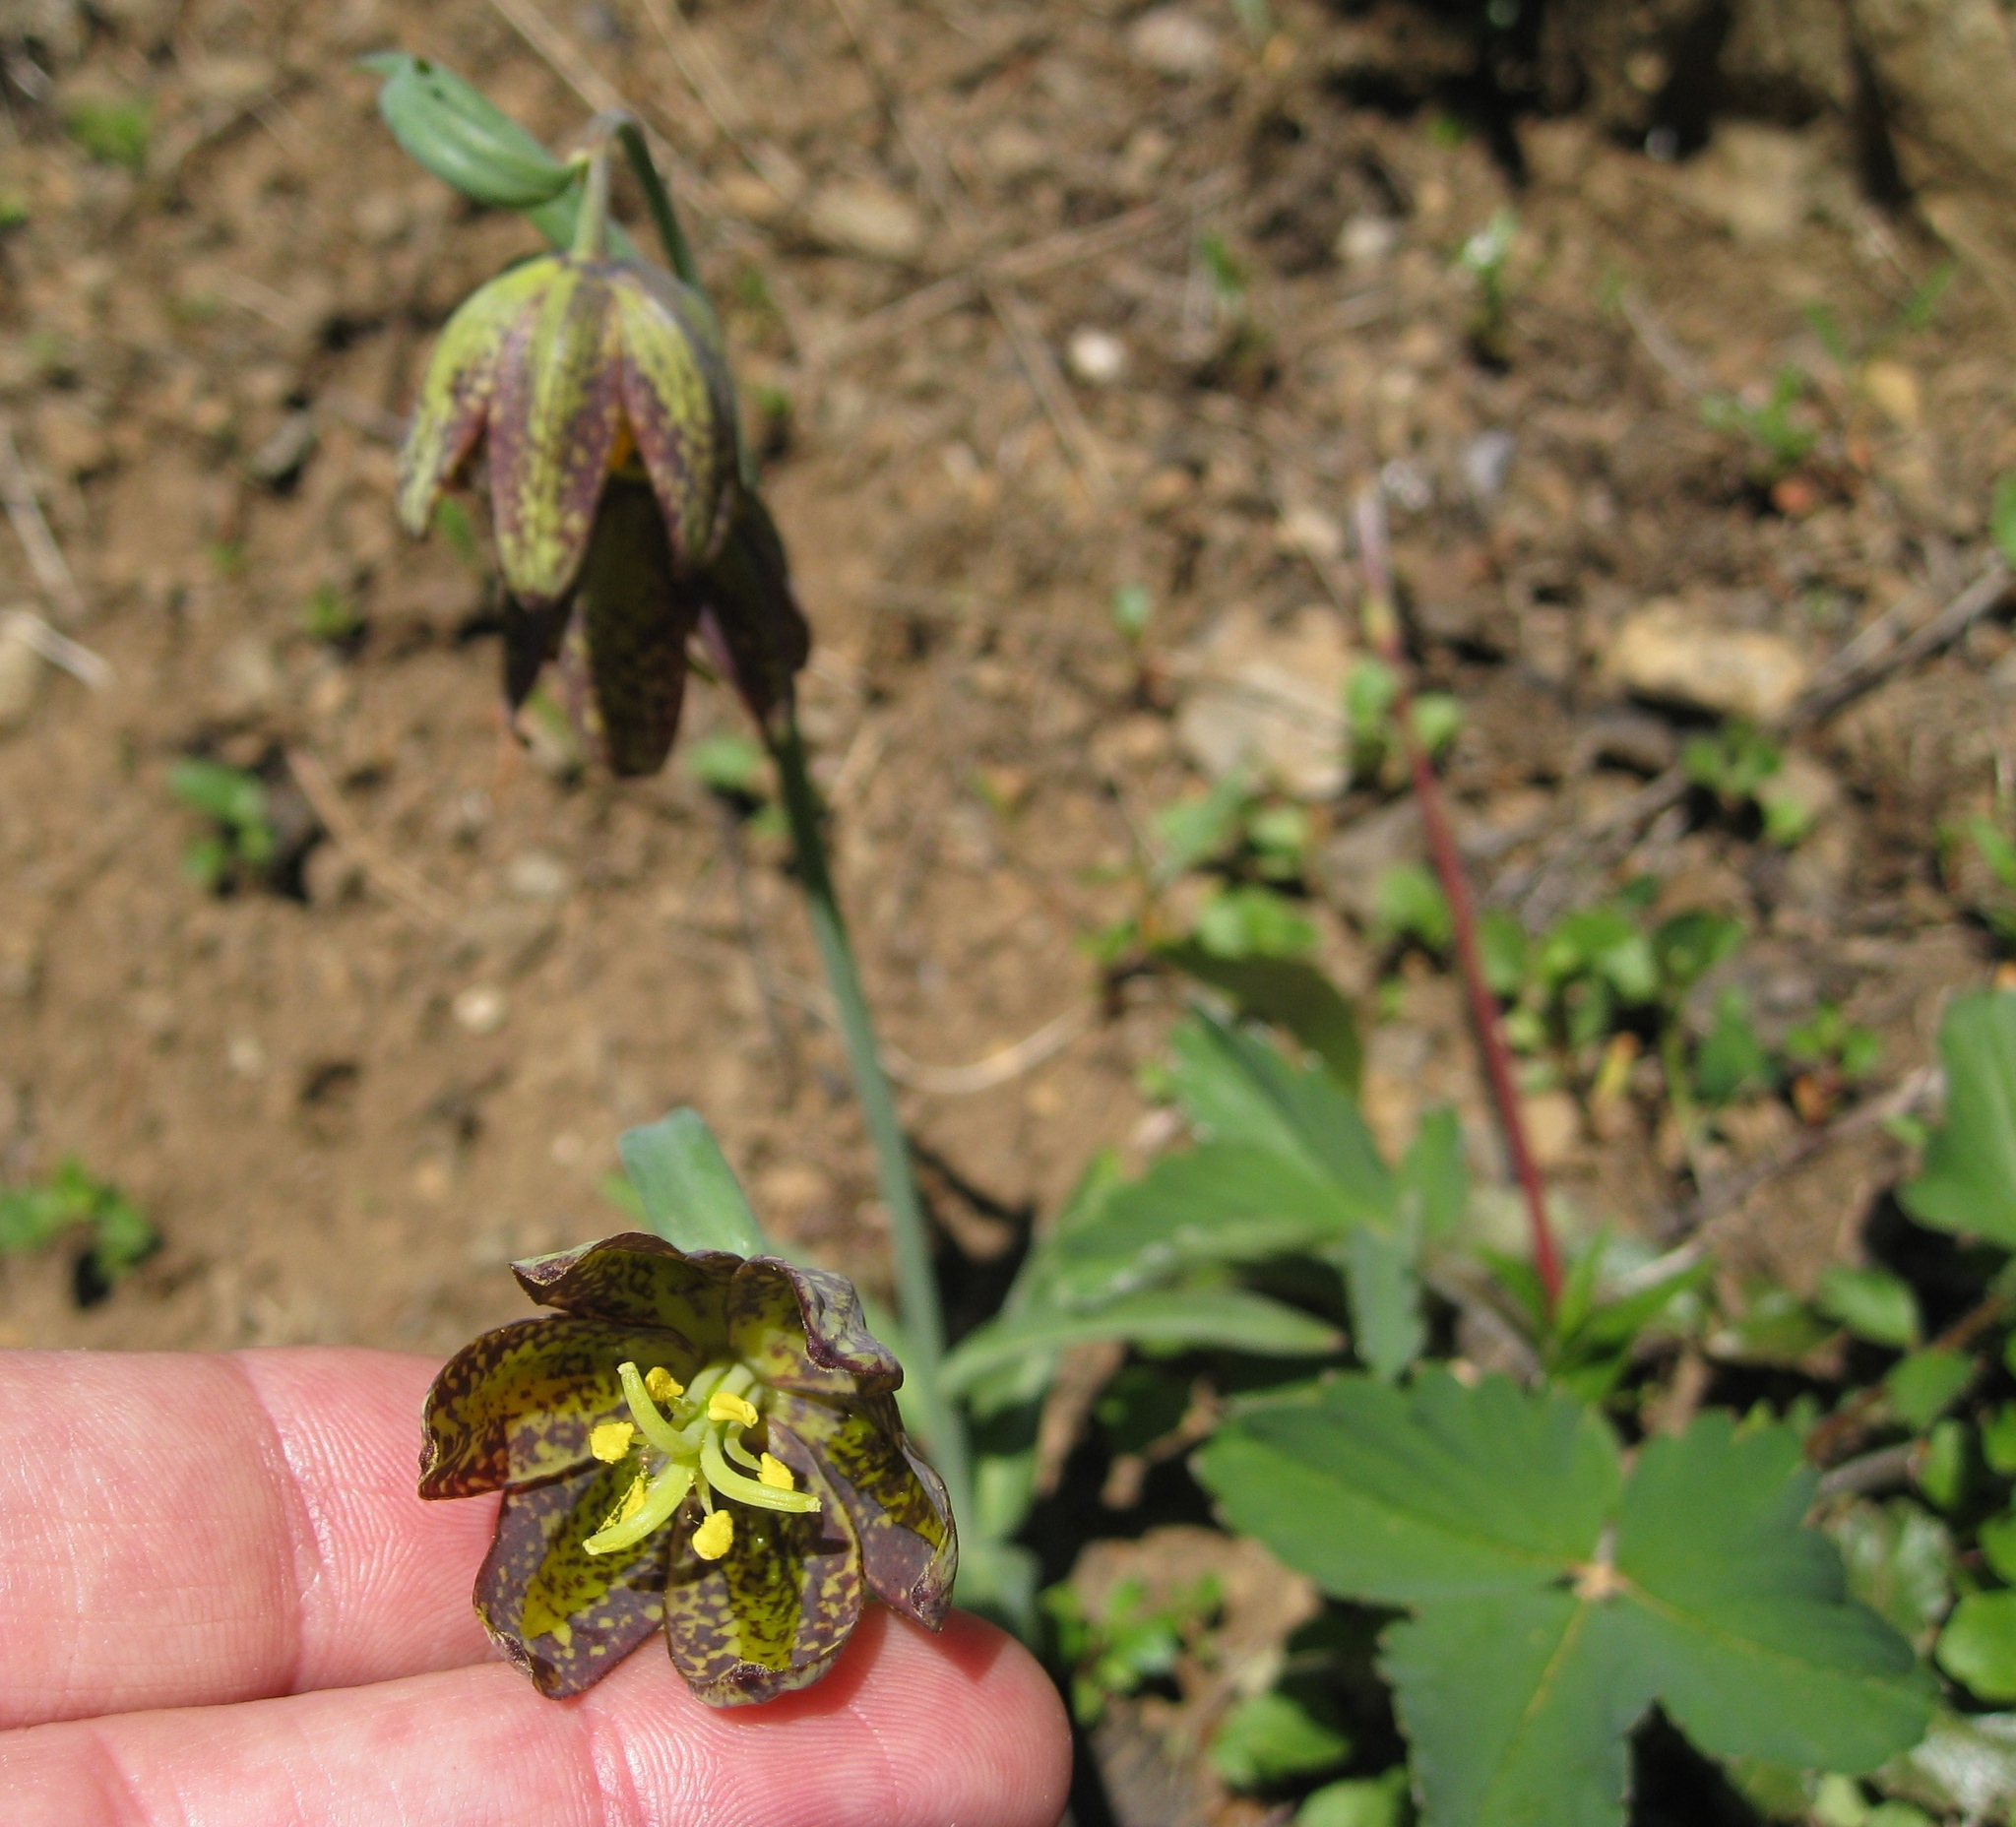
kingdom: Plantae
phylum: Tracheophyta
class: Liliopsida
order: Liliales
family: Liliaceae
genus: Fritillaria
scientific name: Fritillaria affinis
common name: Ojai fritillary
